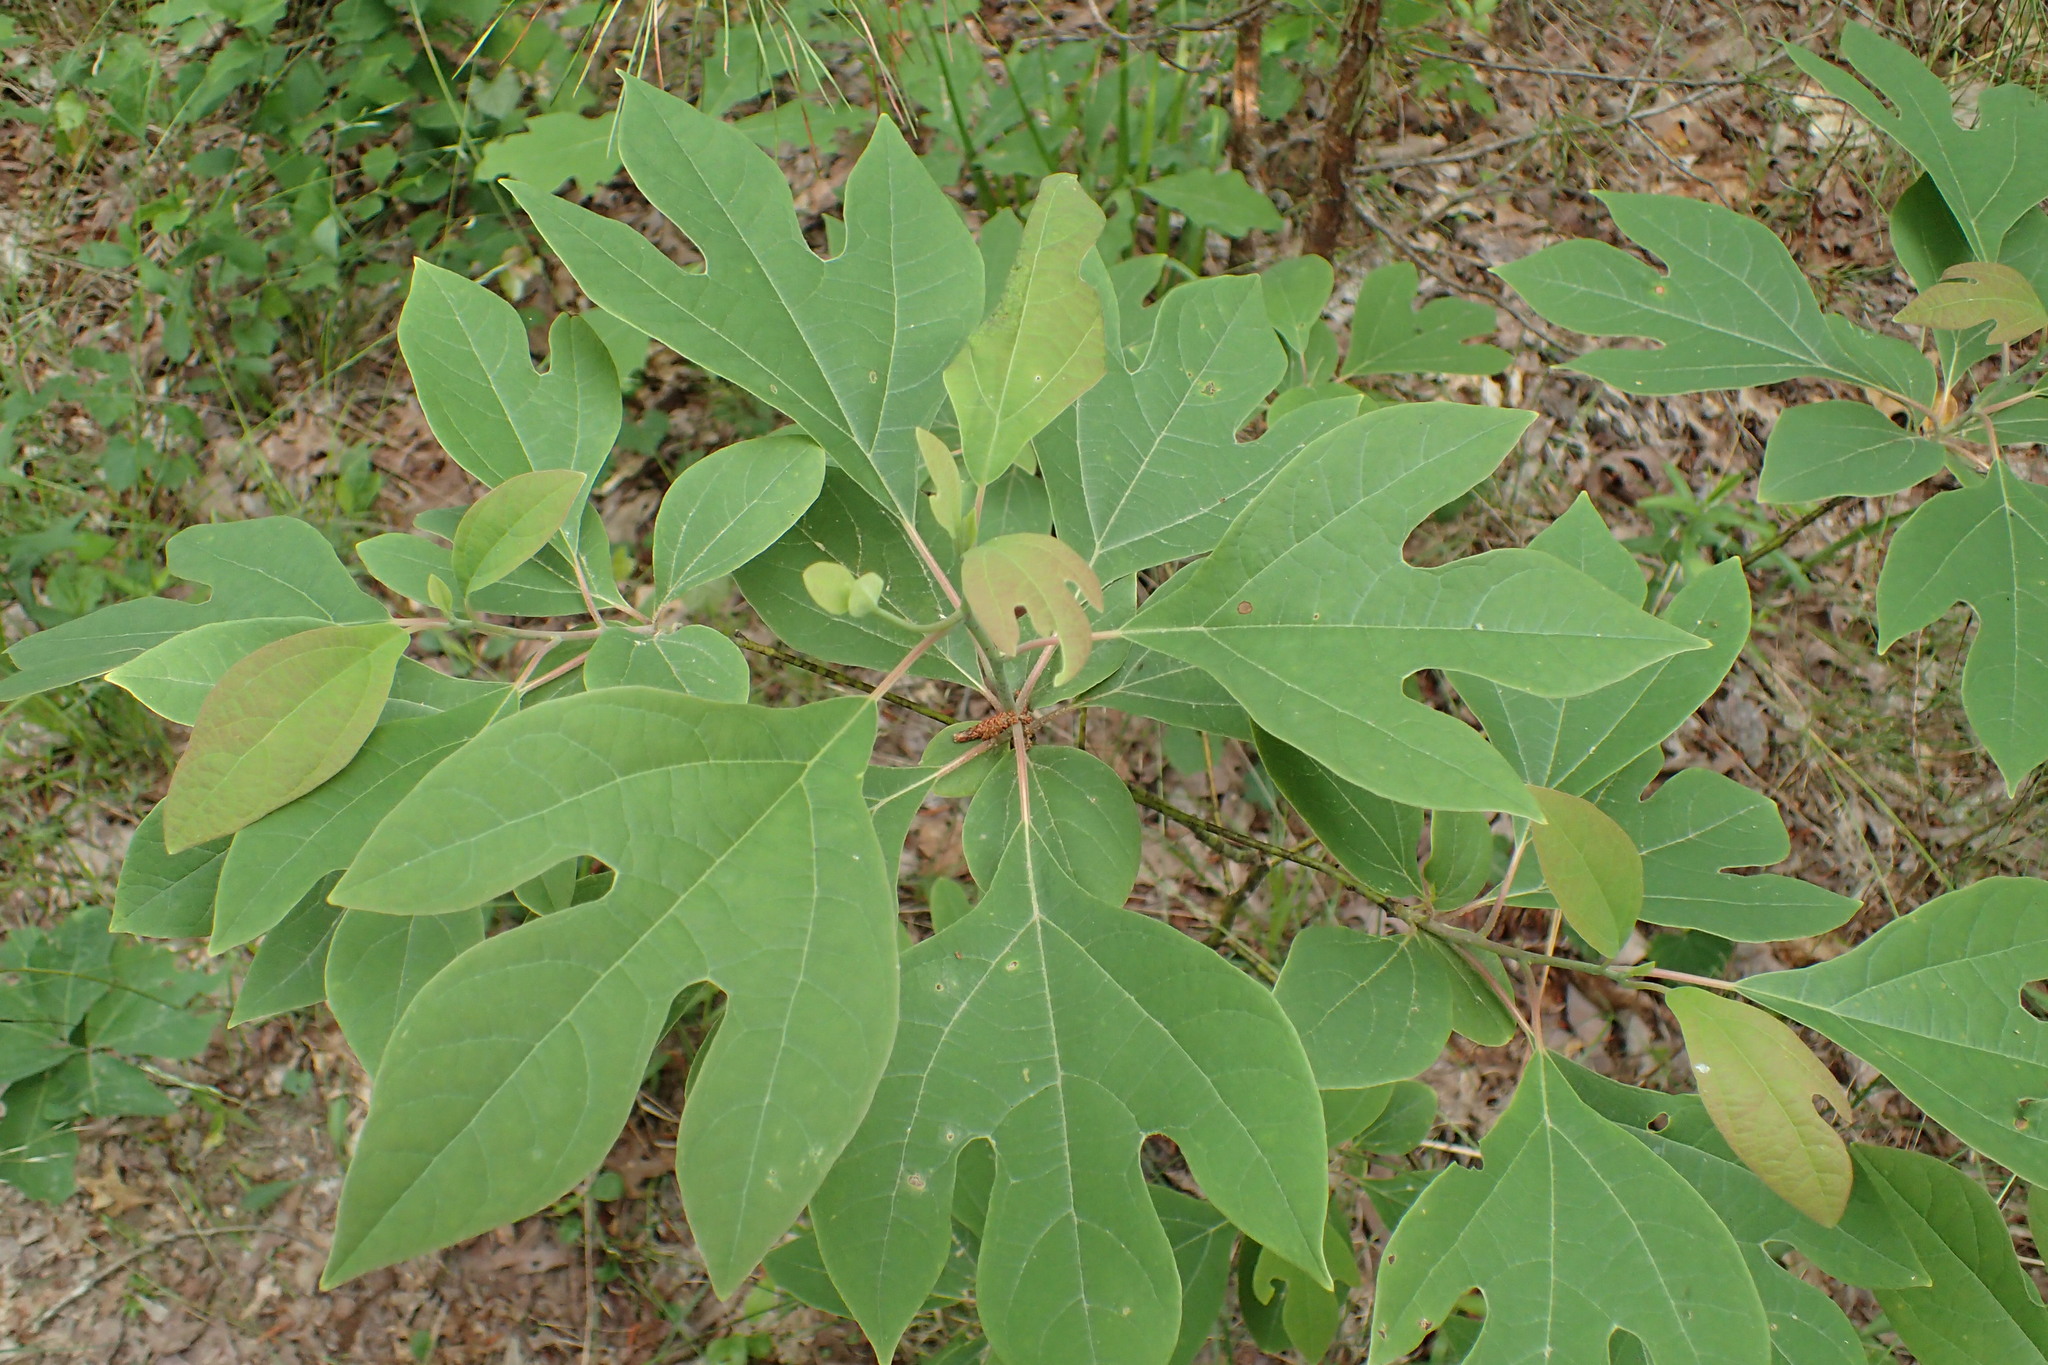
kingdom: Plantae
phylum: Tracheophyta
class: Magnoliopsida
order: Laurales
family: Lauraceae
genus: Sassafras
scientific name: Sassafras albidum
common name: Sassafras
